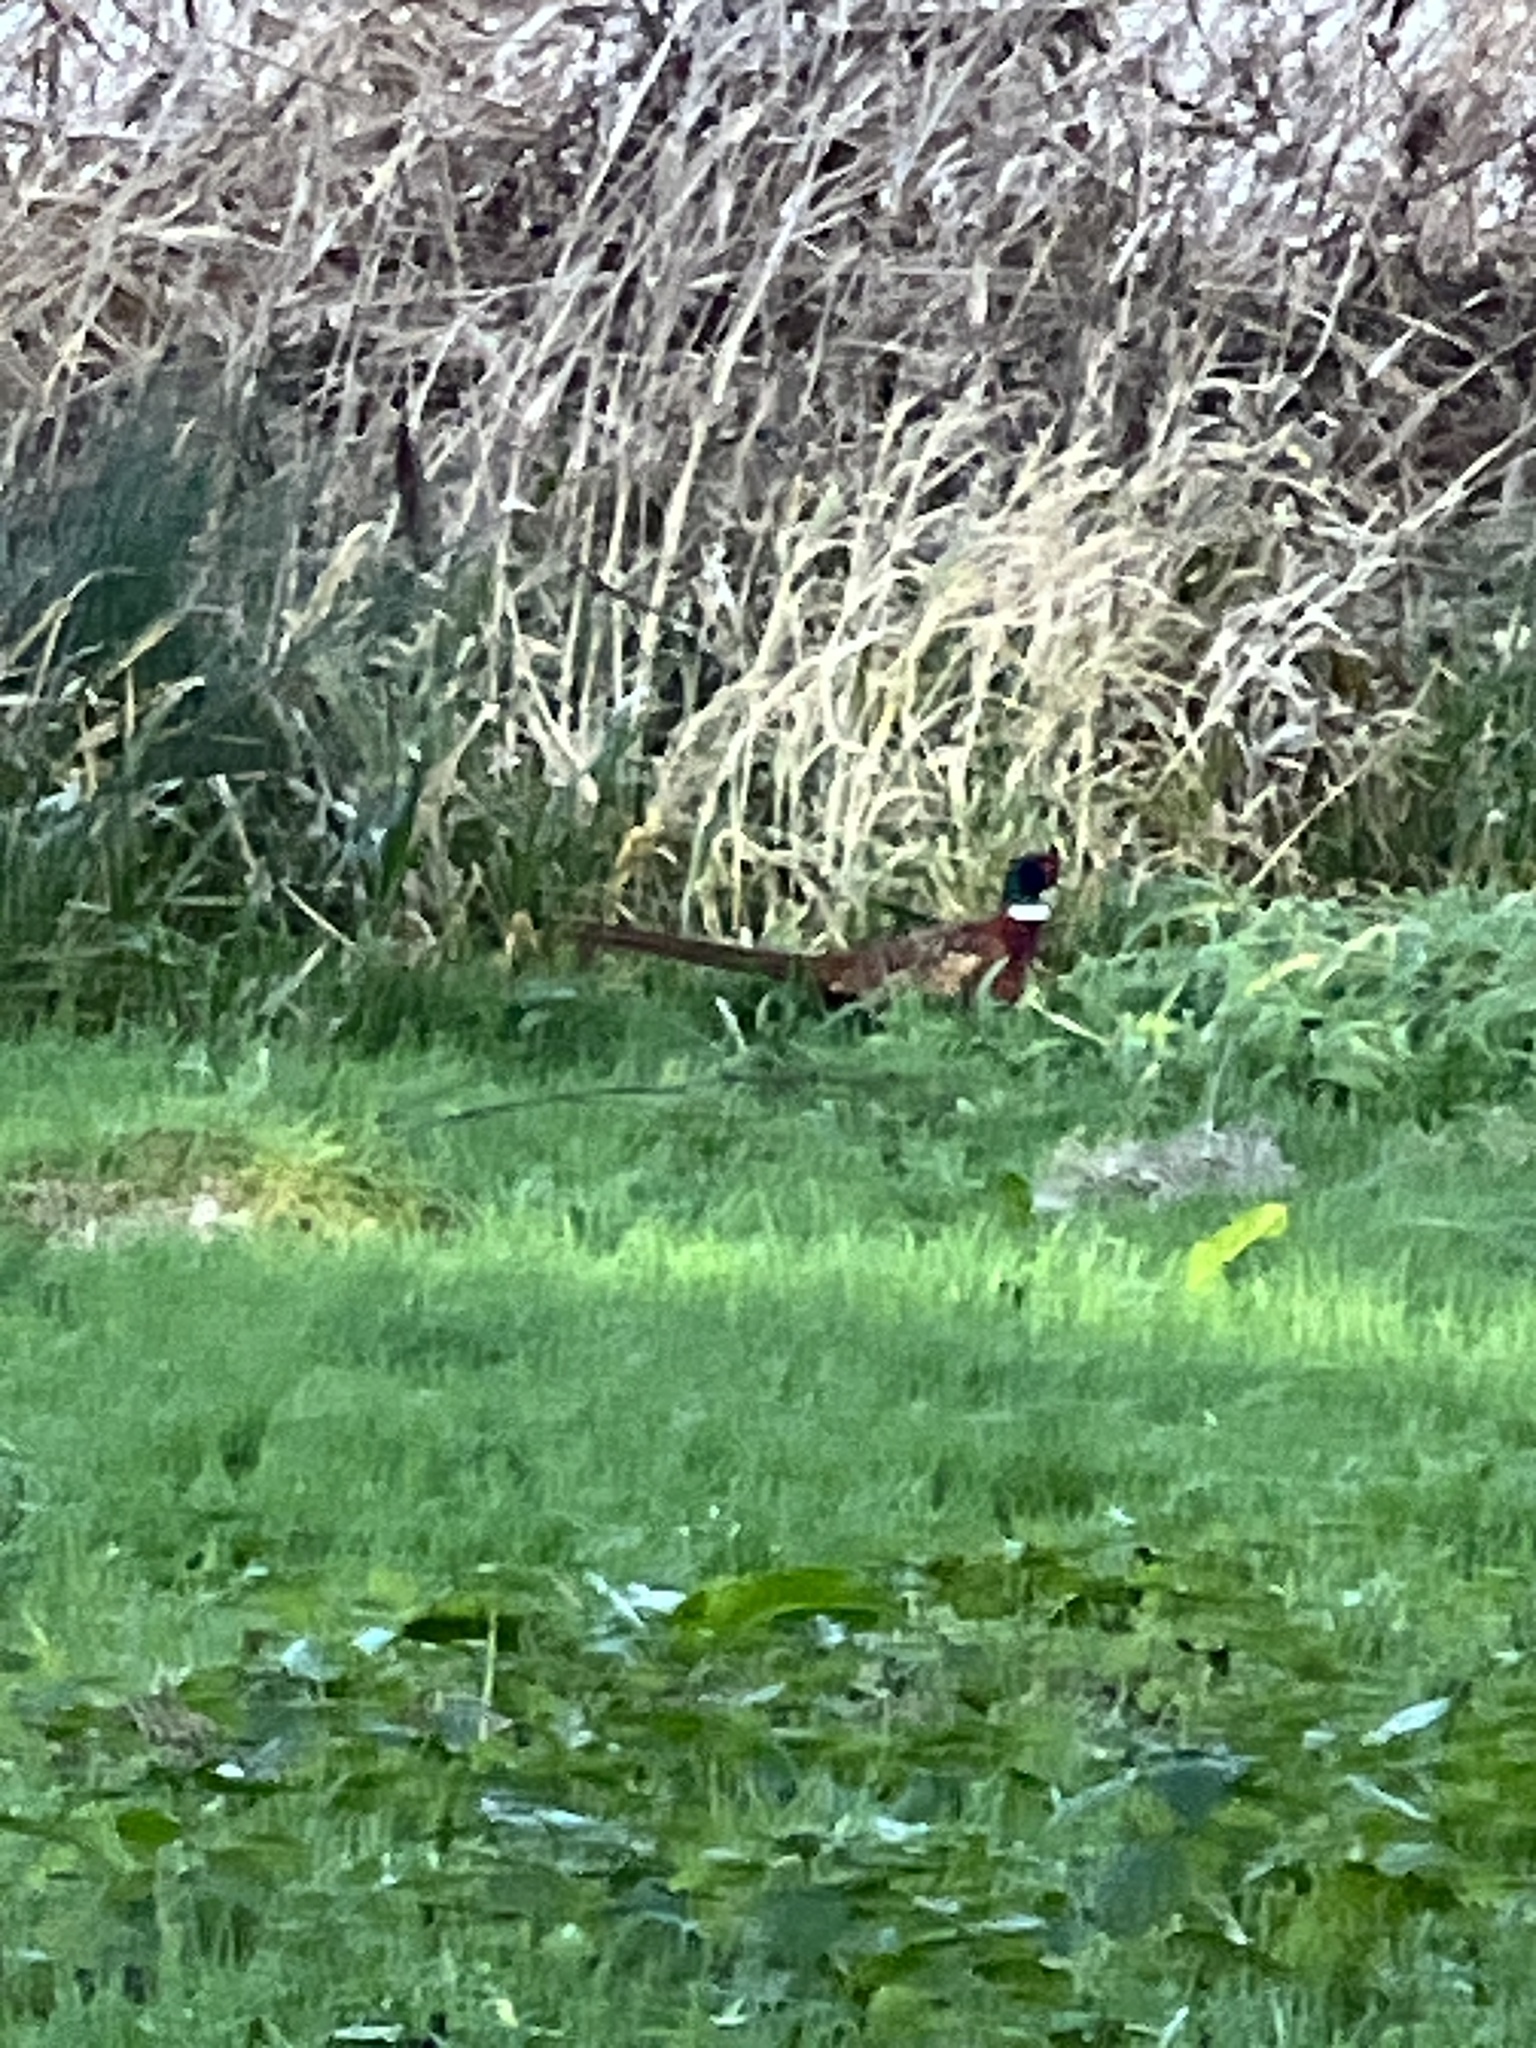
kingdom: Animalia
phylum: Chordata
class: Aves
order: Galliformes
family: Phasianidae
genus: Phasianus
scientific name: Phasianus colchicus
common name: Common pheasant
